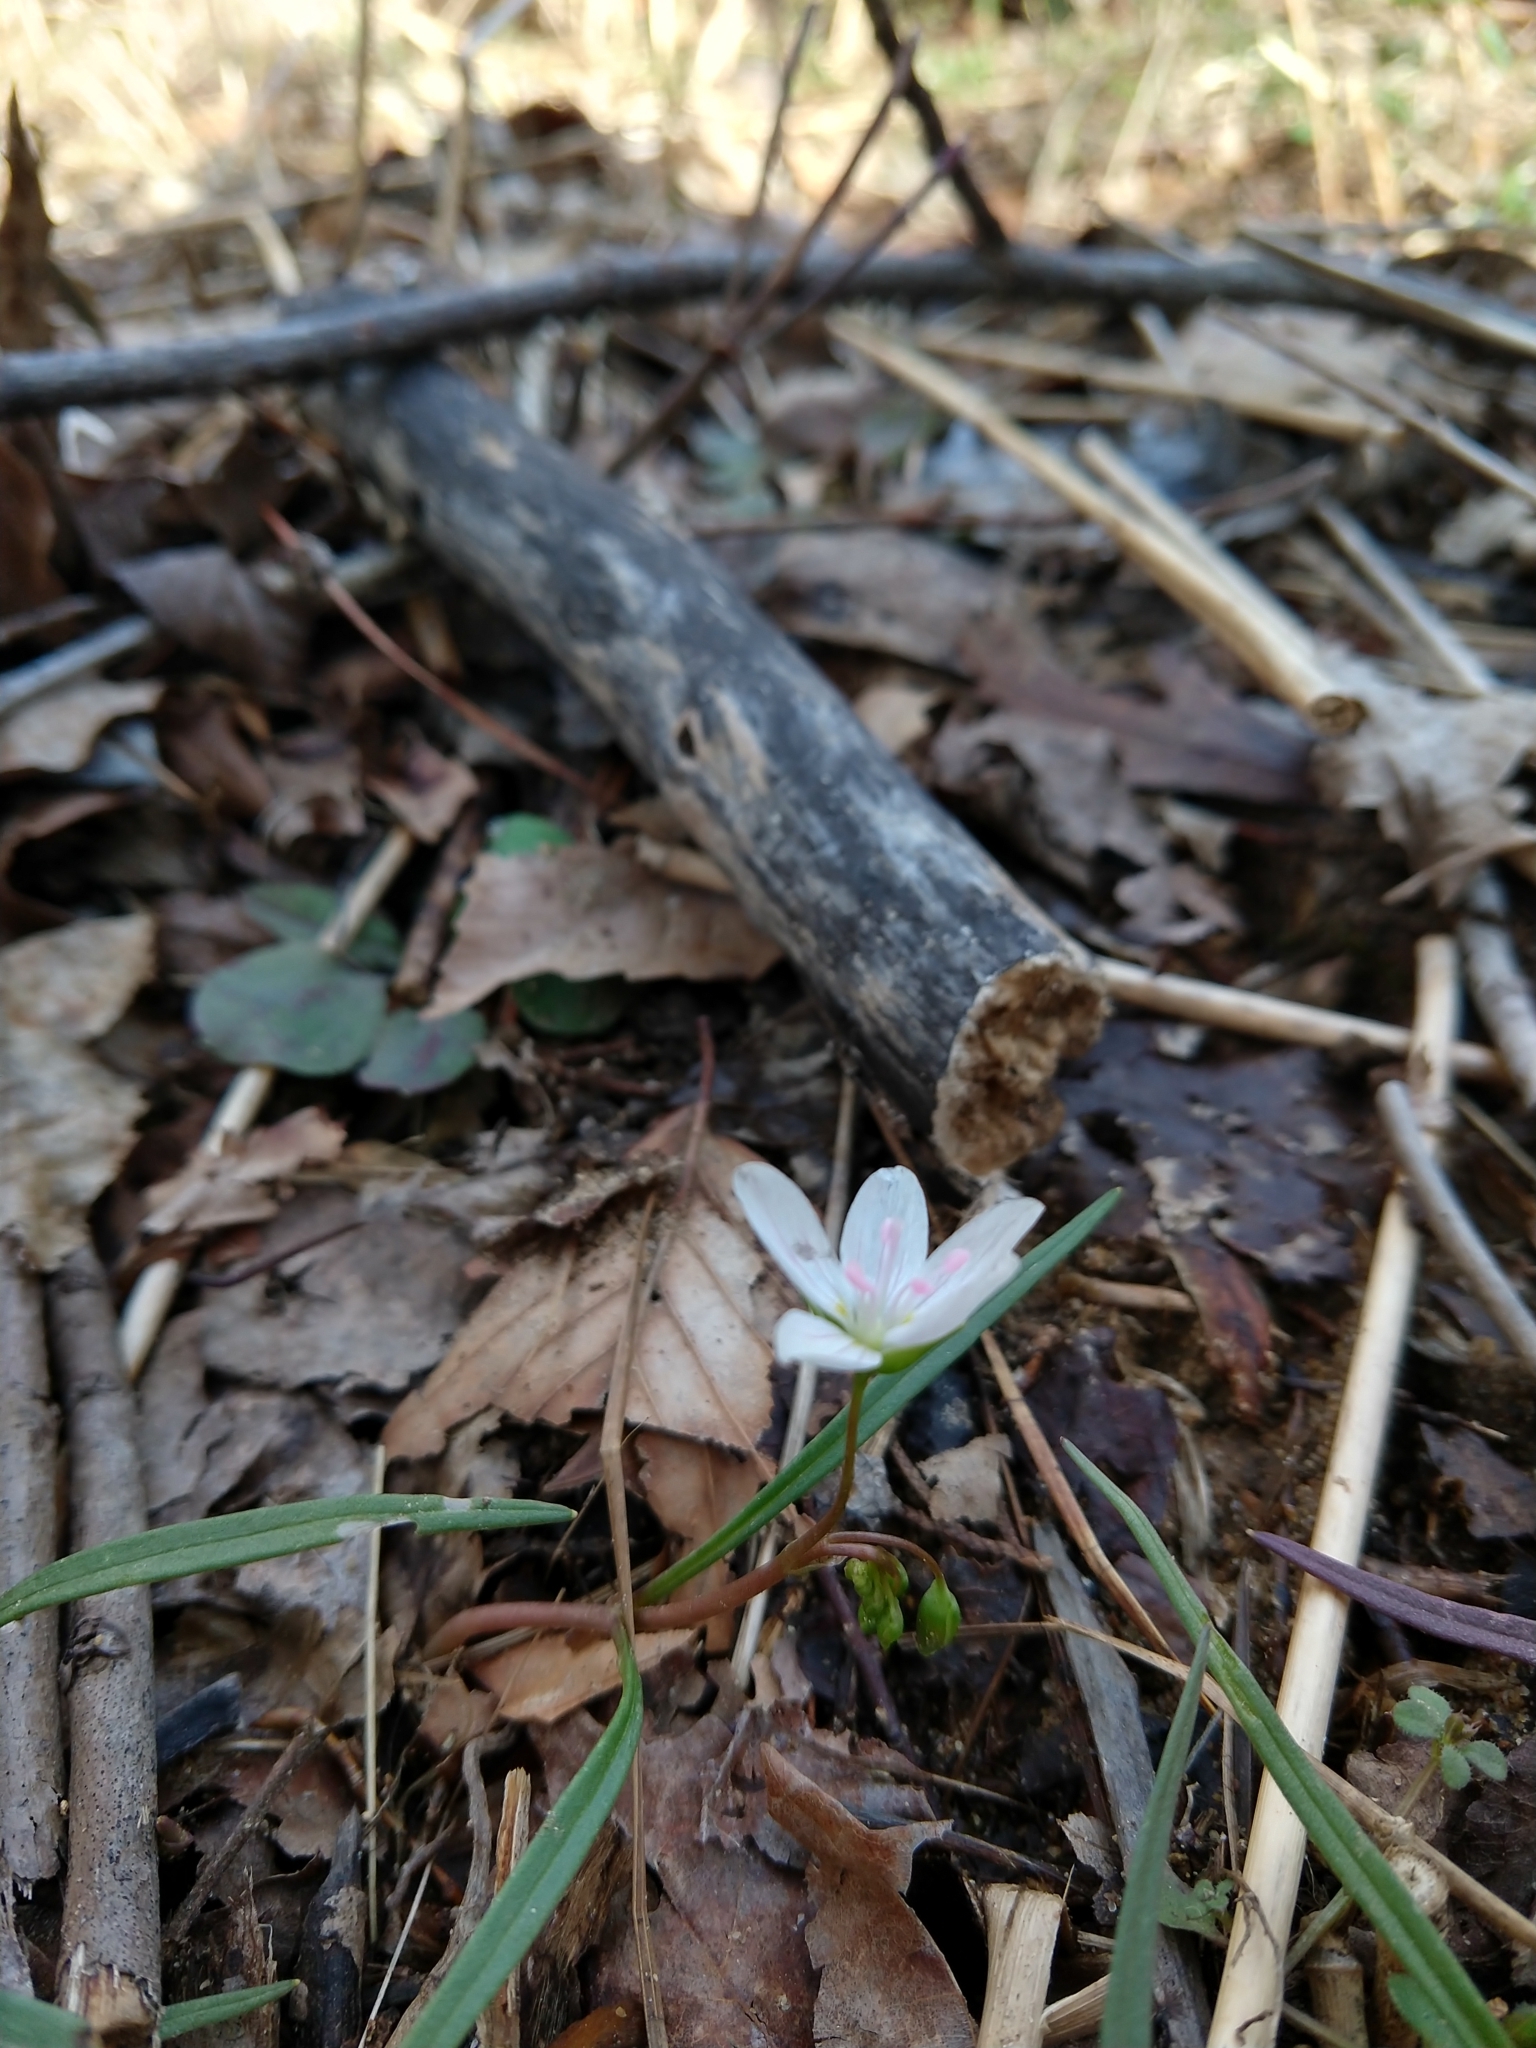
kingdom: Plantae
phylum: Tracheophyta
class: Magnoliopsida
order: Caryophyllales
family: Montiaceae
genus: Claytonia
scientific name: Claytonia virginica
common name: Virginia springbeauty
